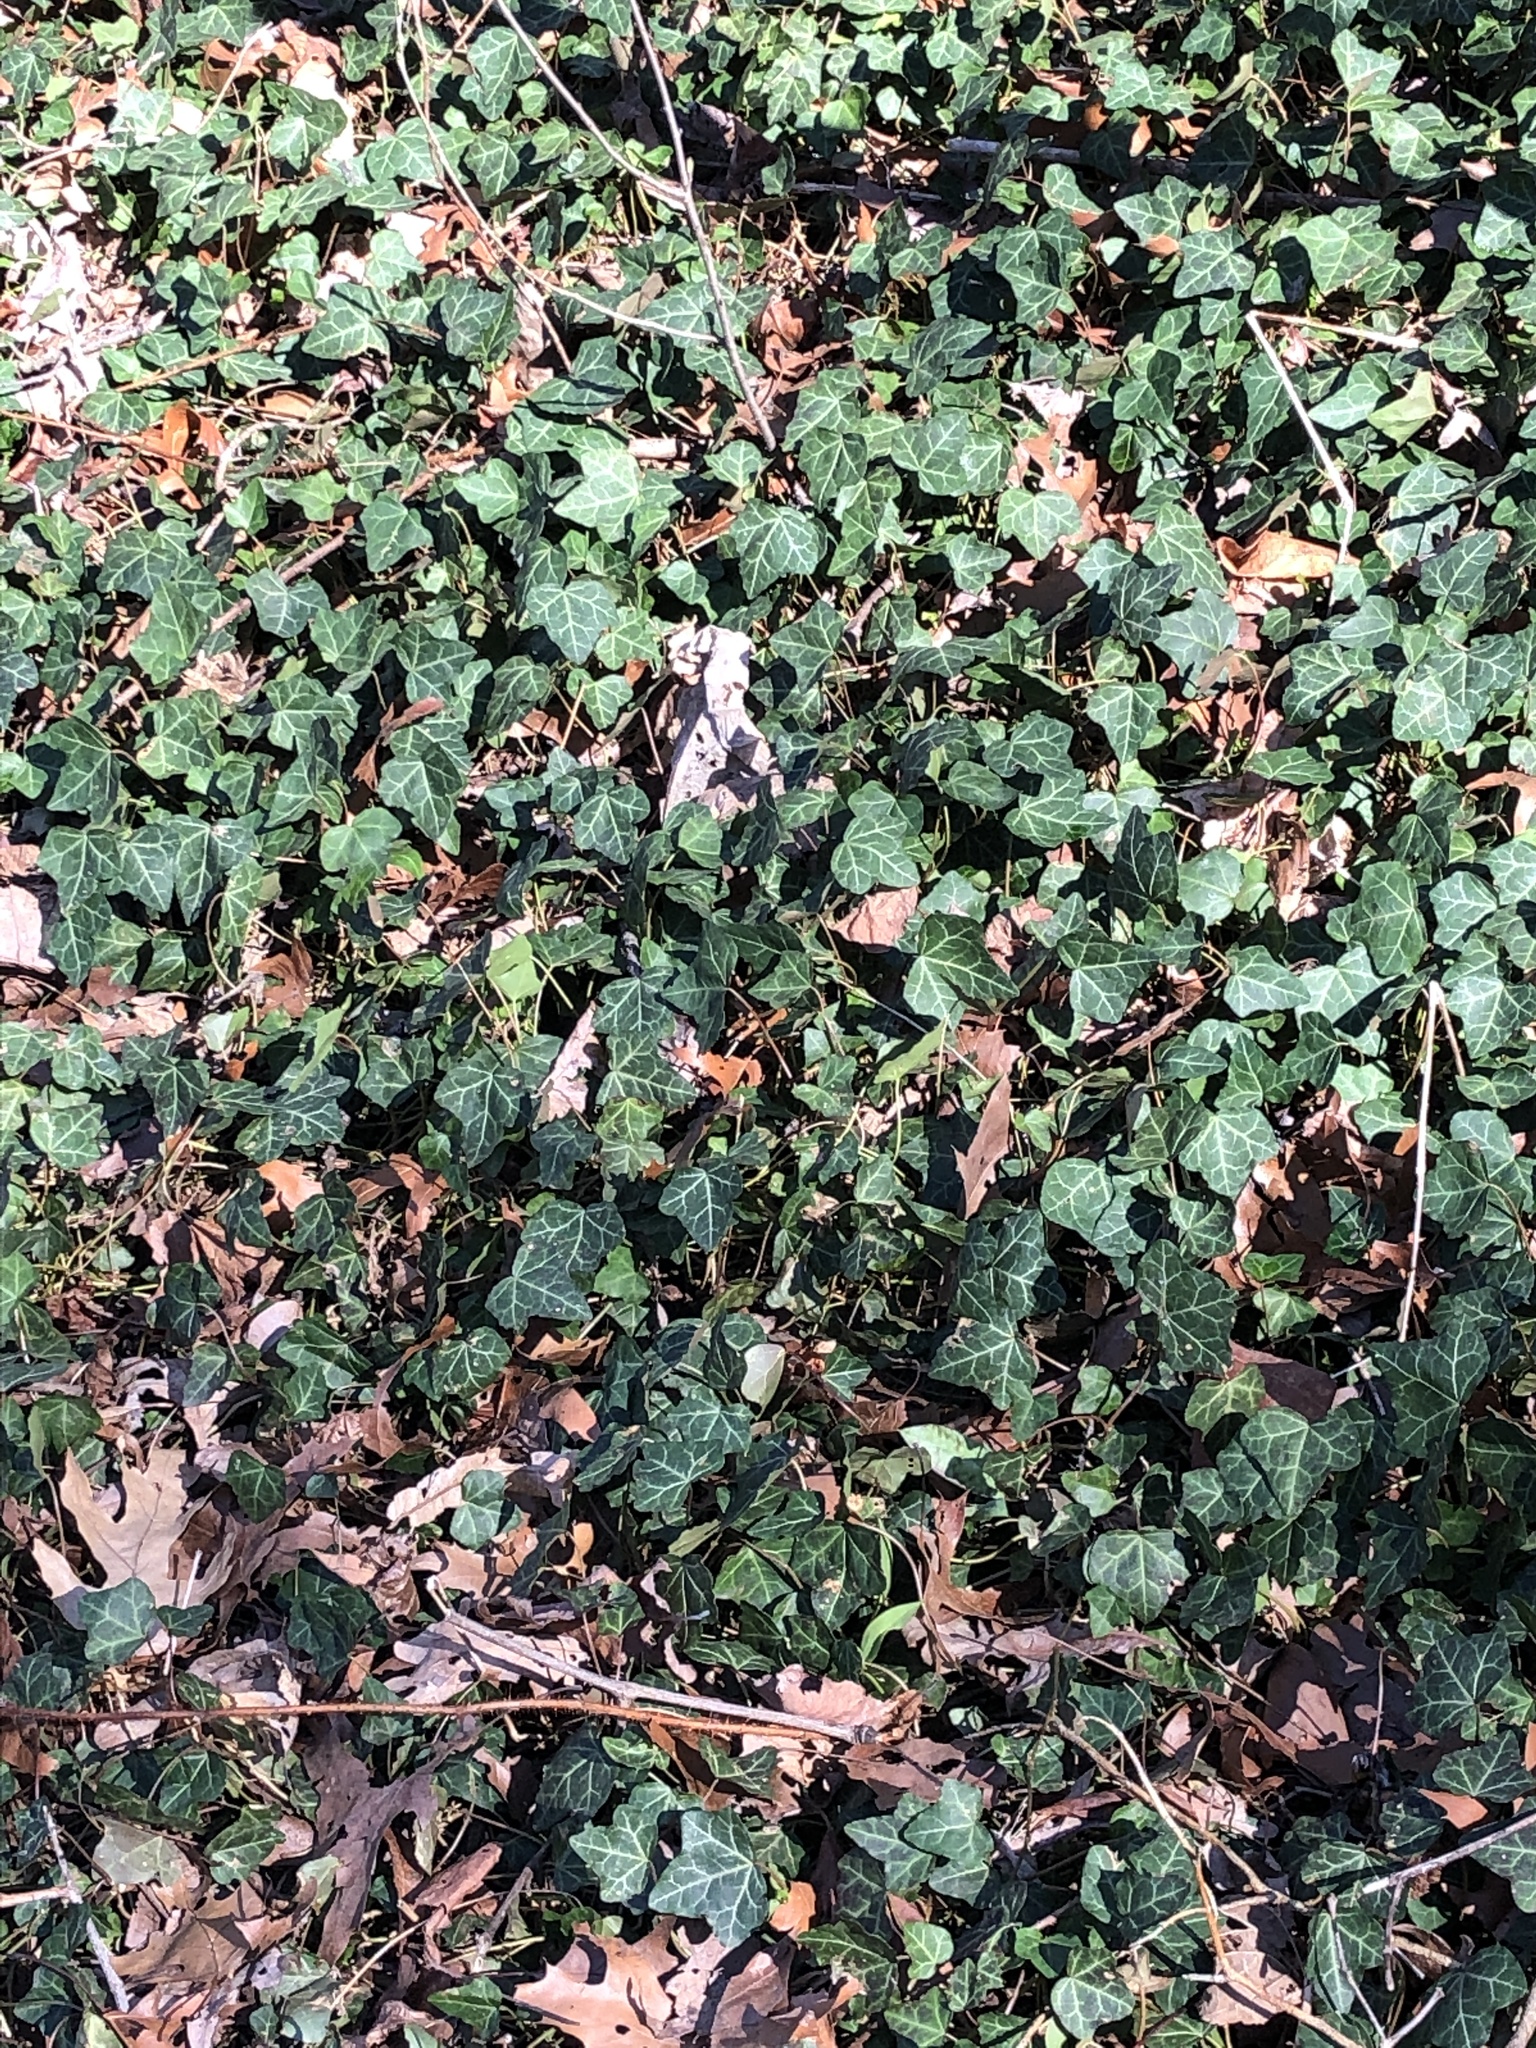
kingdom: Plantae
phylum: Tracheophyta
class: Magnoliopsida
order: Apiales
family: Araliaceae
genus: Hedera
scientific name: Hedera helix
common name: Ivy
